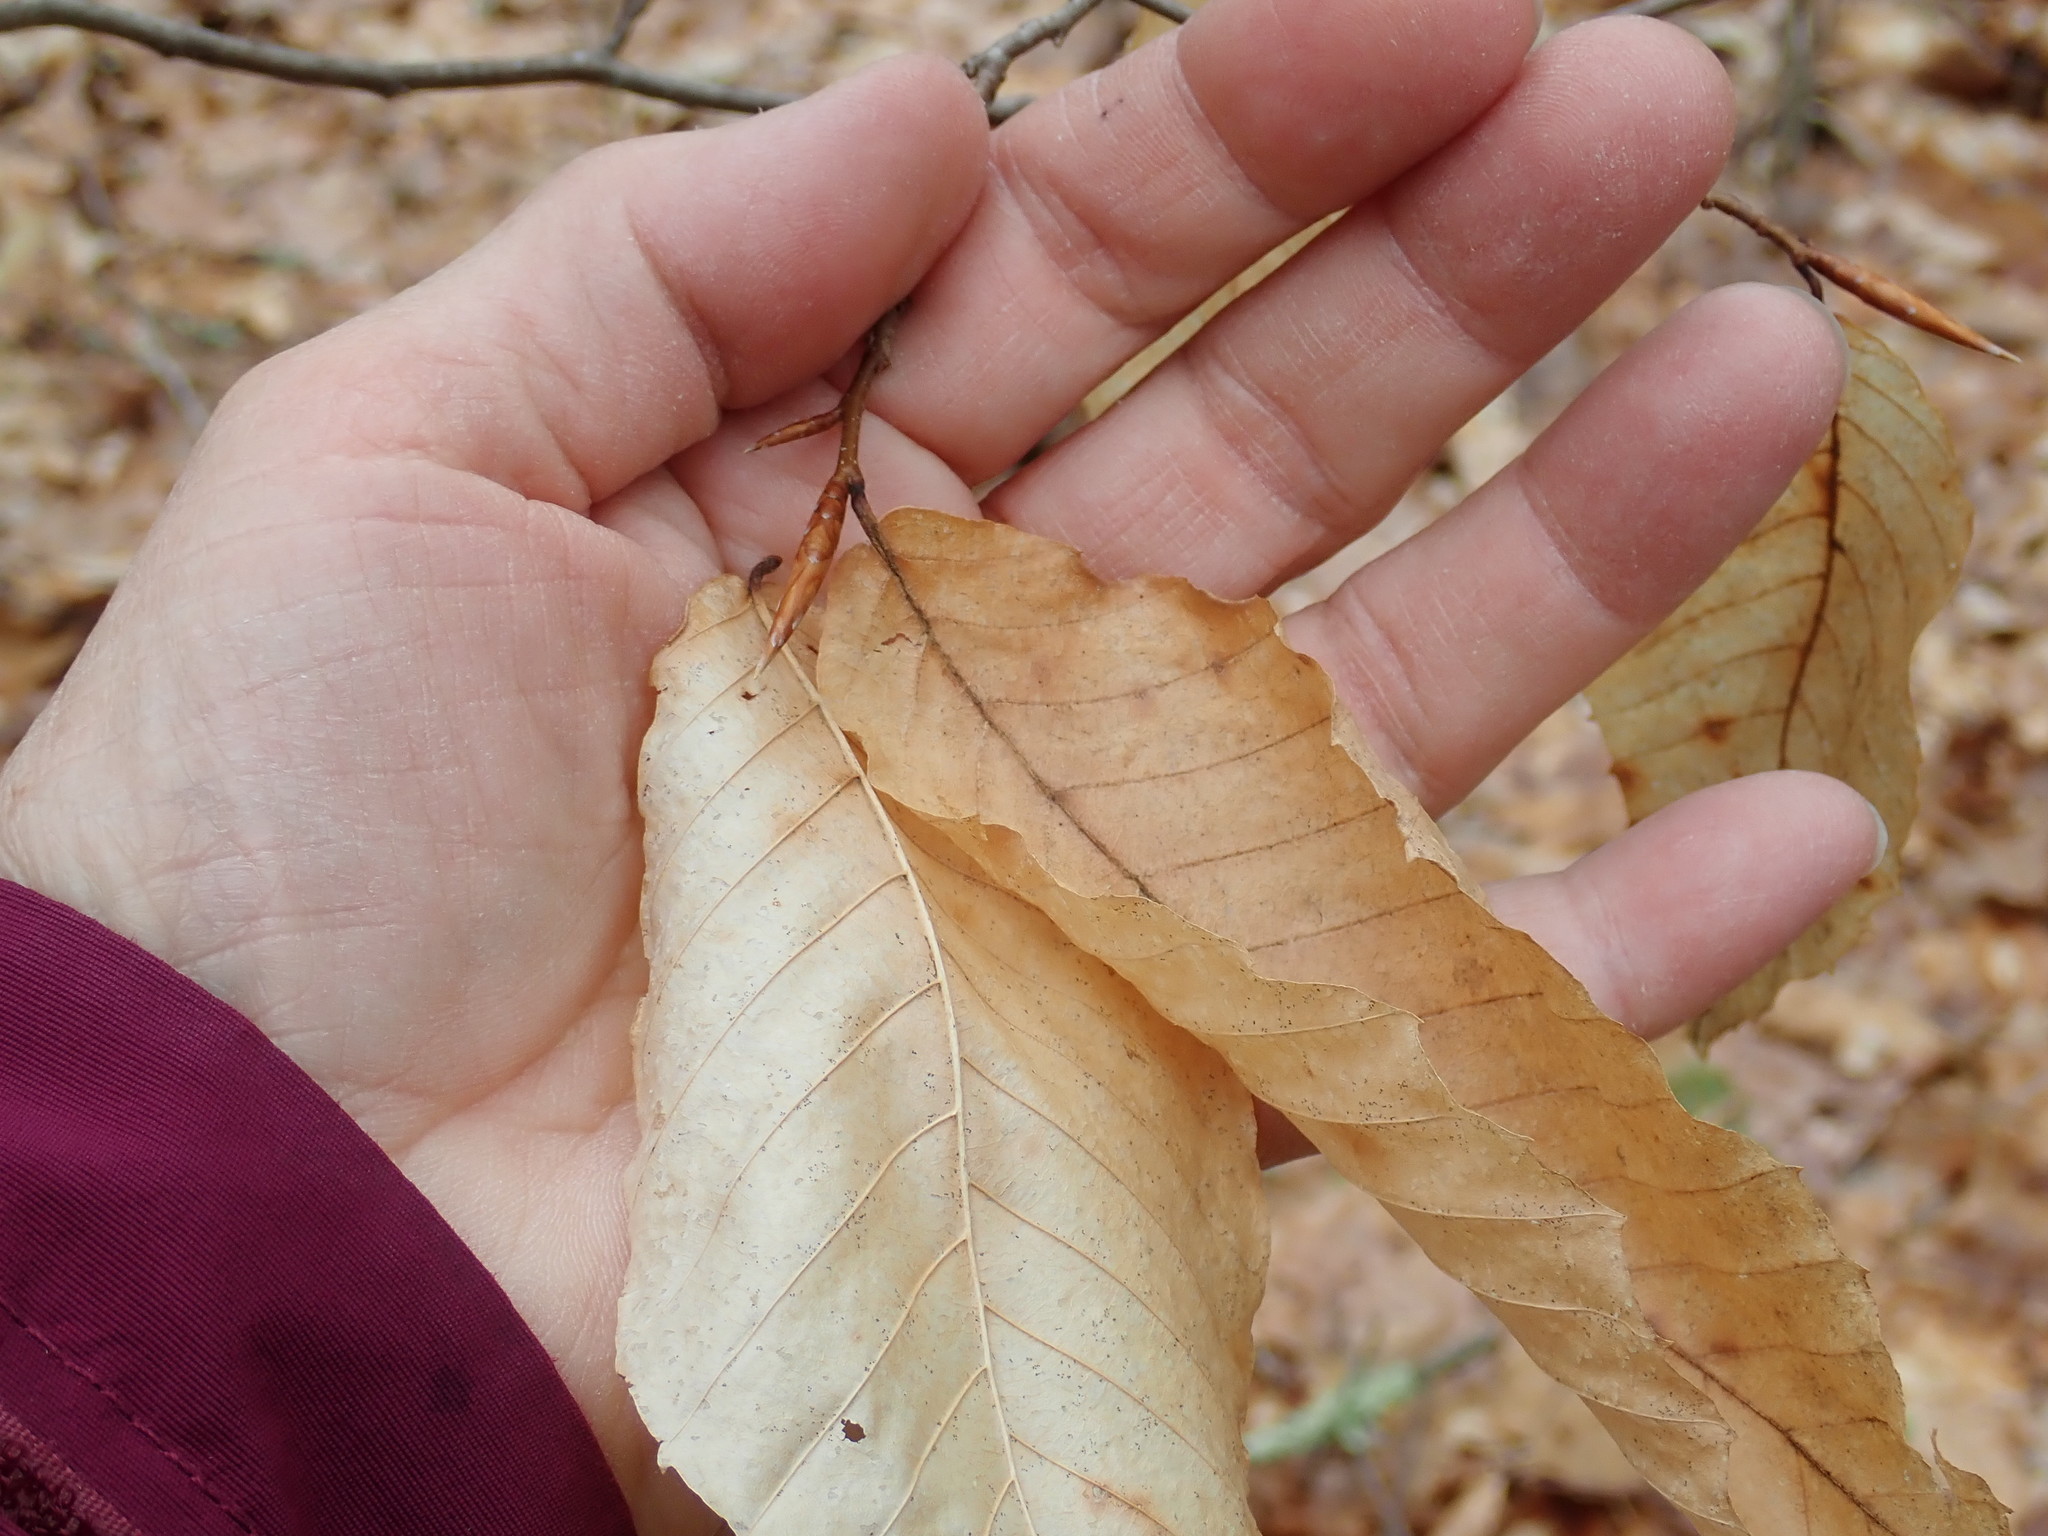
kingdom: Plantae
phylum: Tracheophyta
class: Magnoliopsida
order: Fagales
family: Fagaceae
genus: Fagus
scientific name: Fagus grandifolia
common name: American beech
